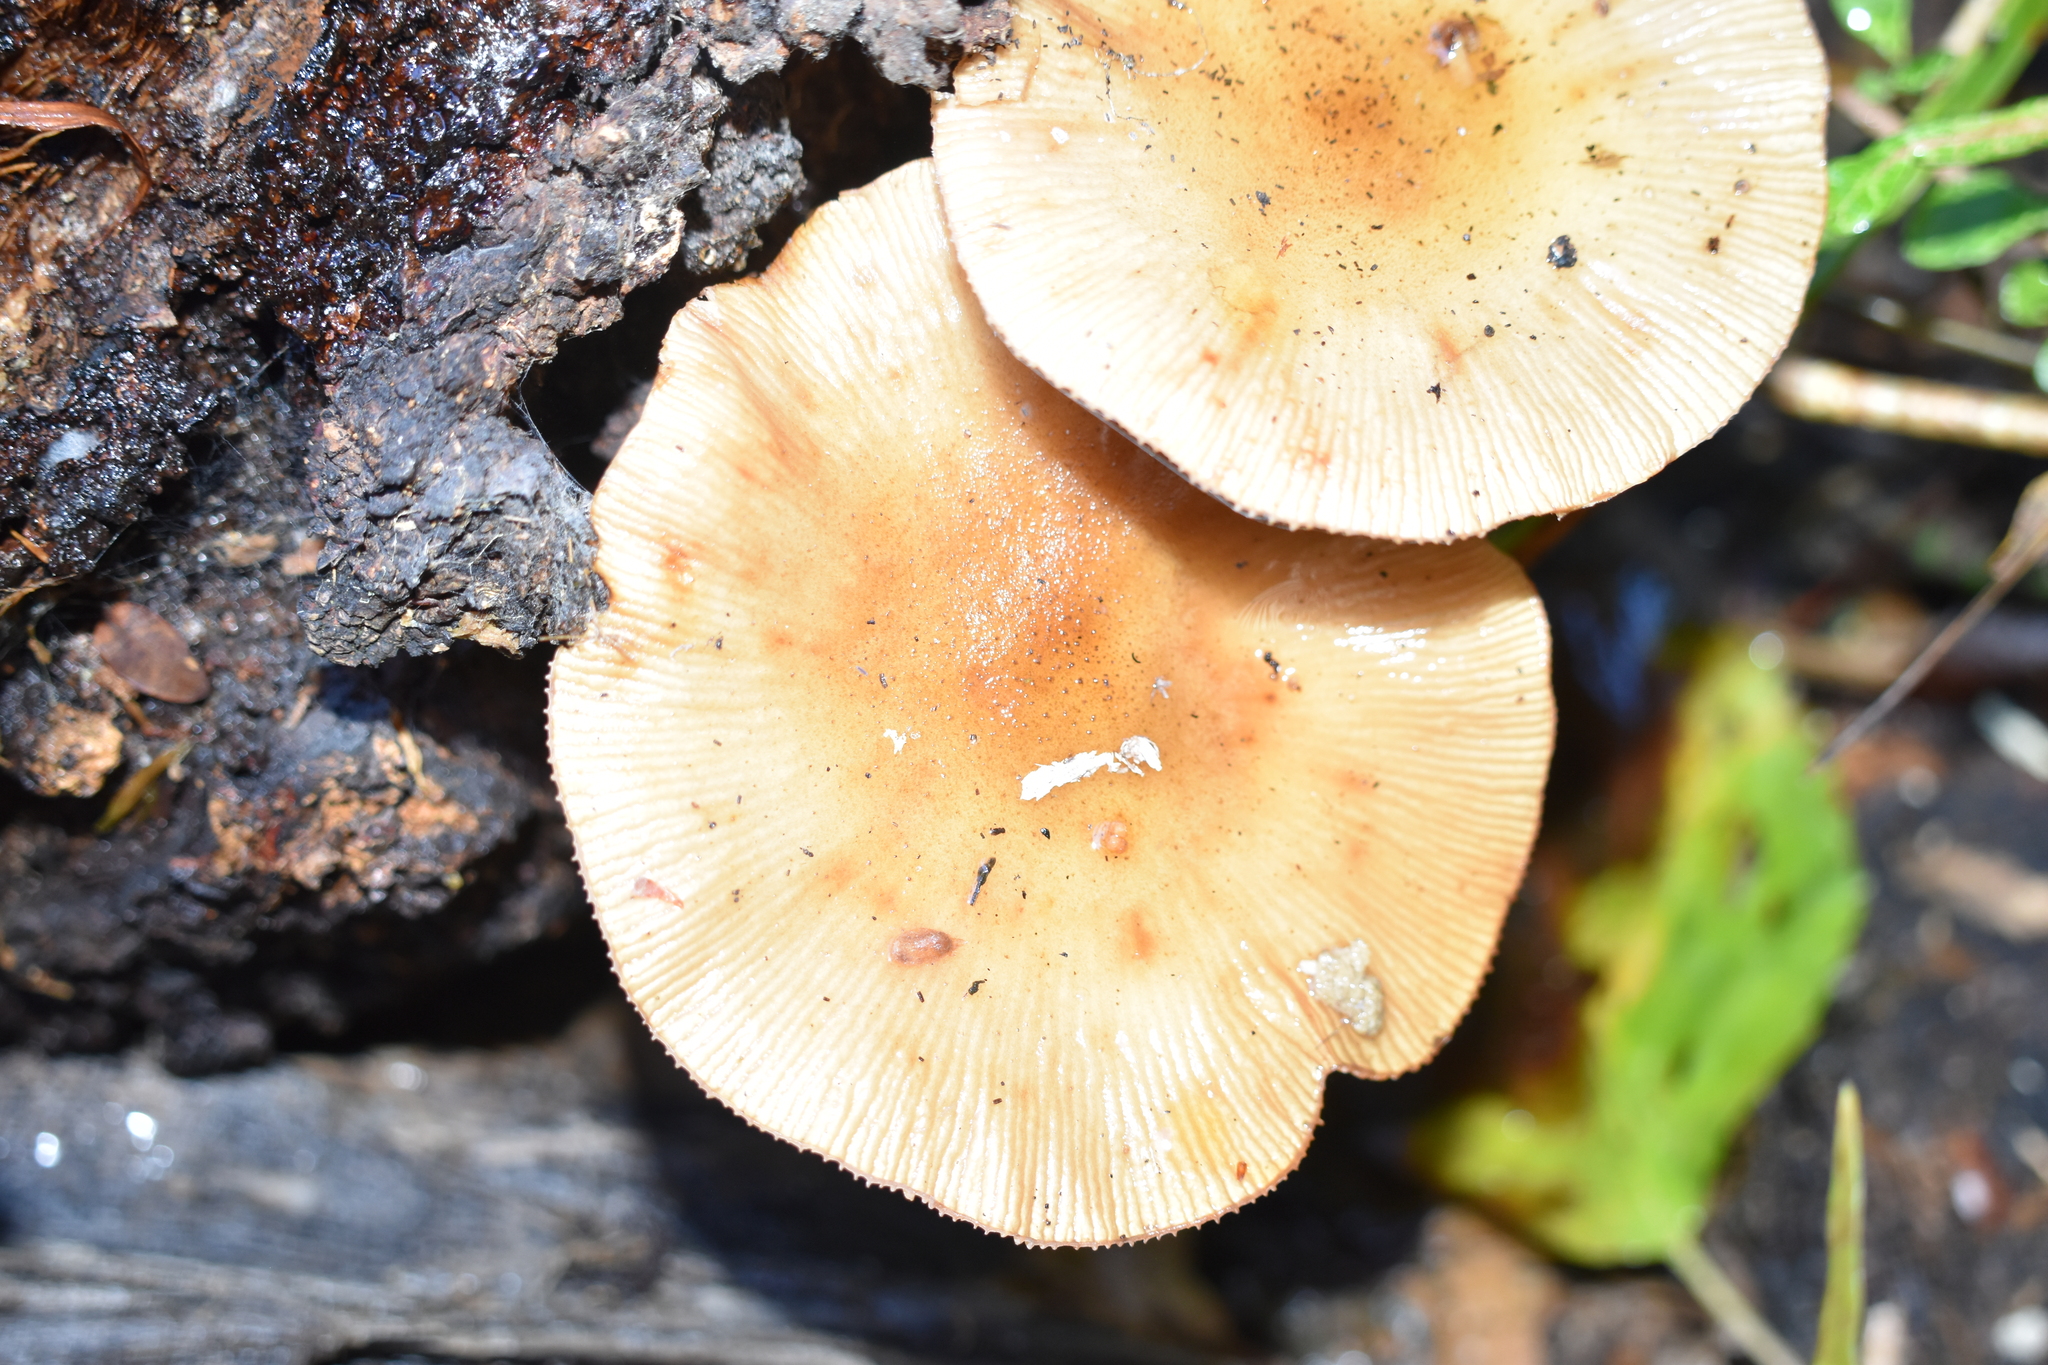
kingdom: Fungi
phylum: Basidiomycota
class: Agaricomycetes
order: Agaricales
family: Physalacriaceae
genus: Armillaria
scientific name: Armillaria novae-zelandiae
